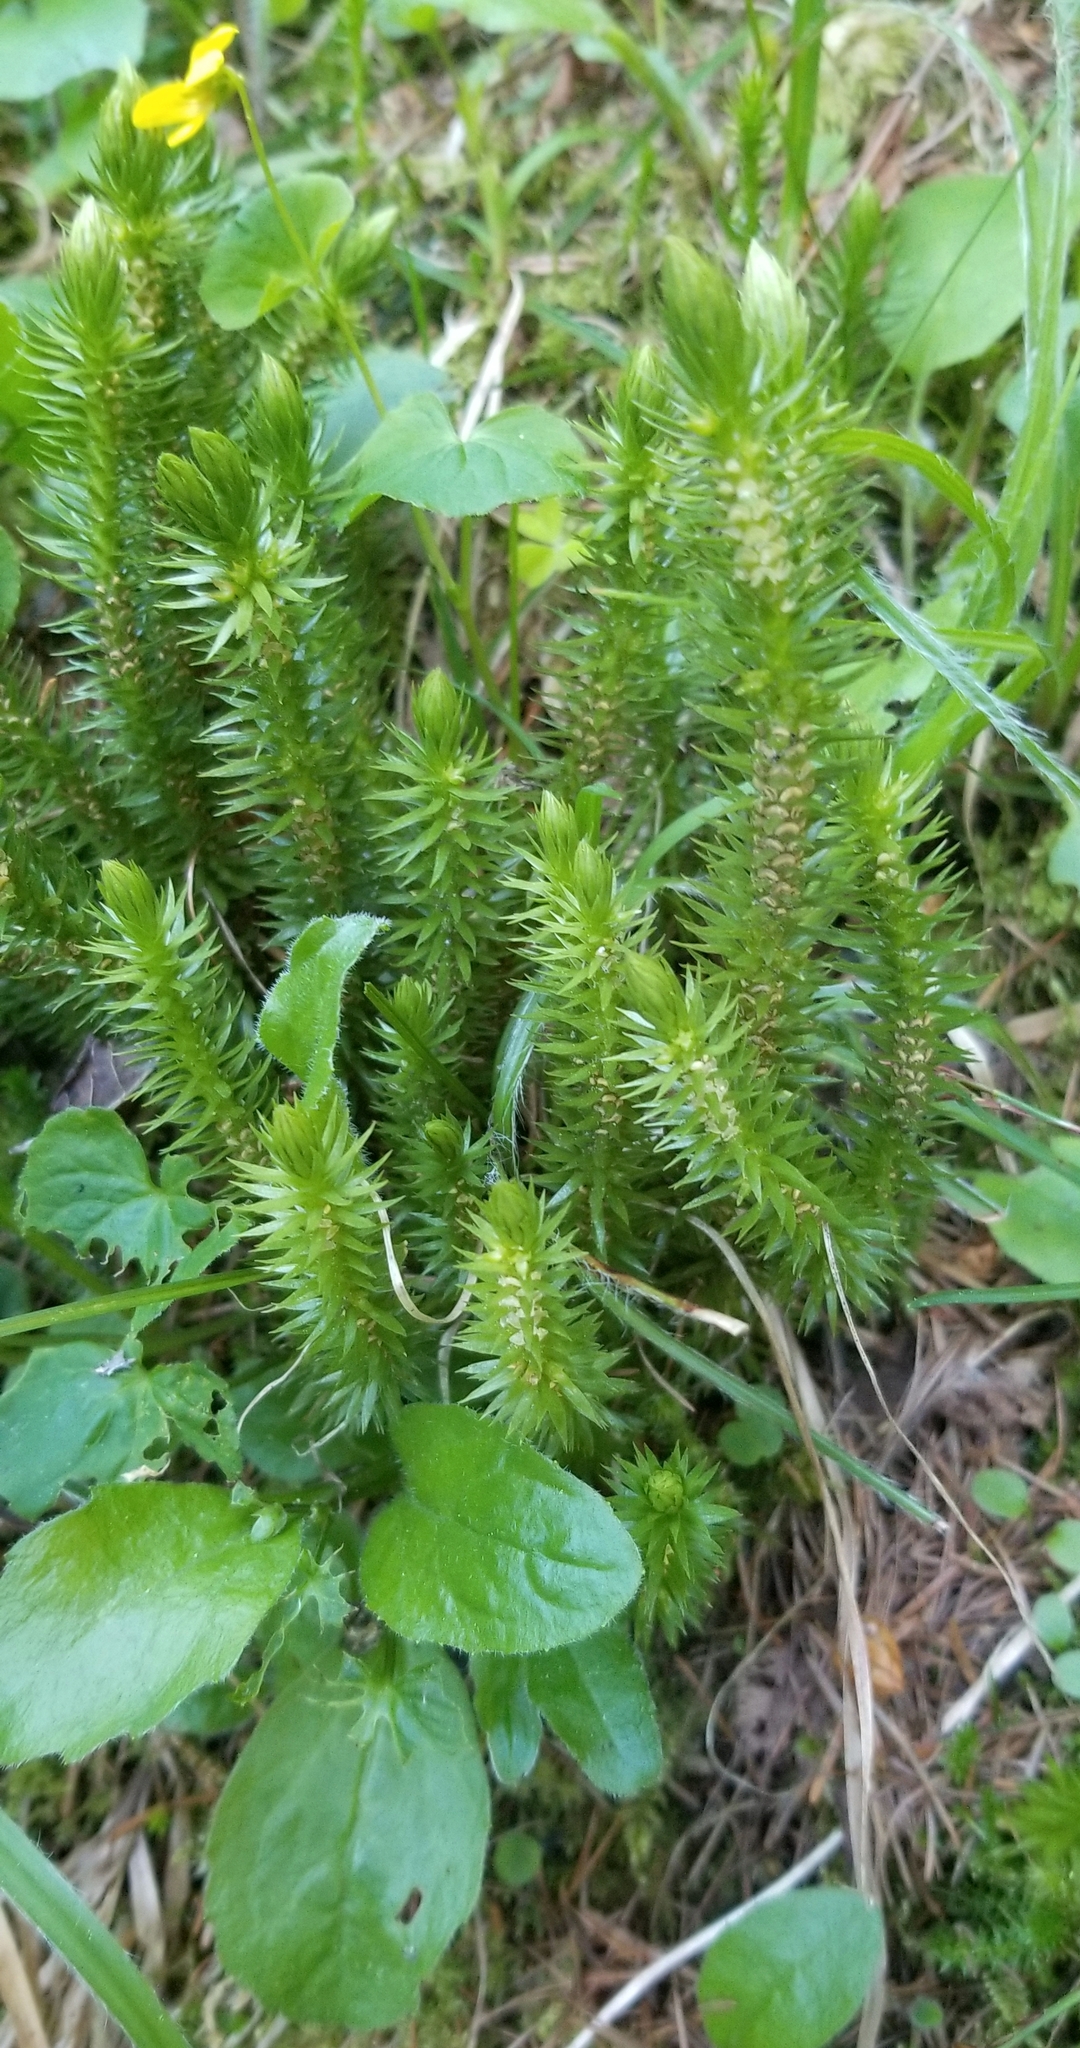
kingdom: Plantae
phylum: Tracheophyta
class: Lycopodiopsida
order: Lycopodiales
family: Lycopodiaceae
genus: Huperzia
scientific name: Huperzia selago
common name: Northern firmoss
